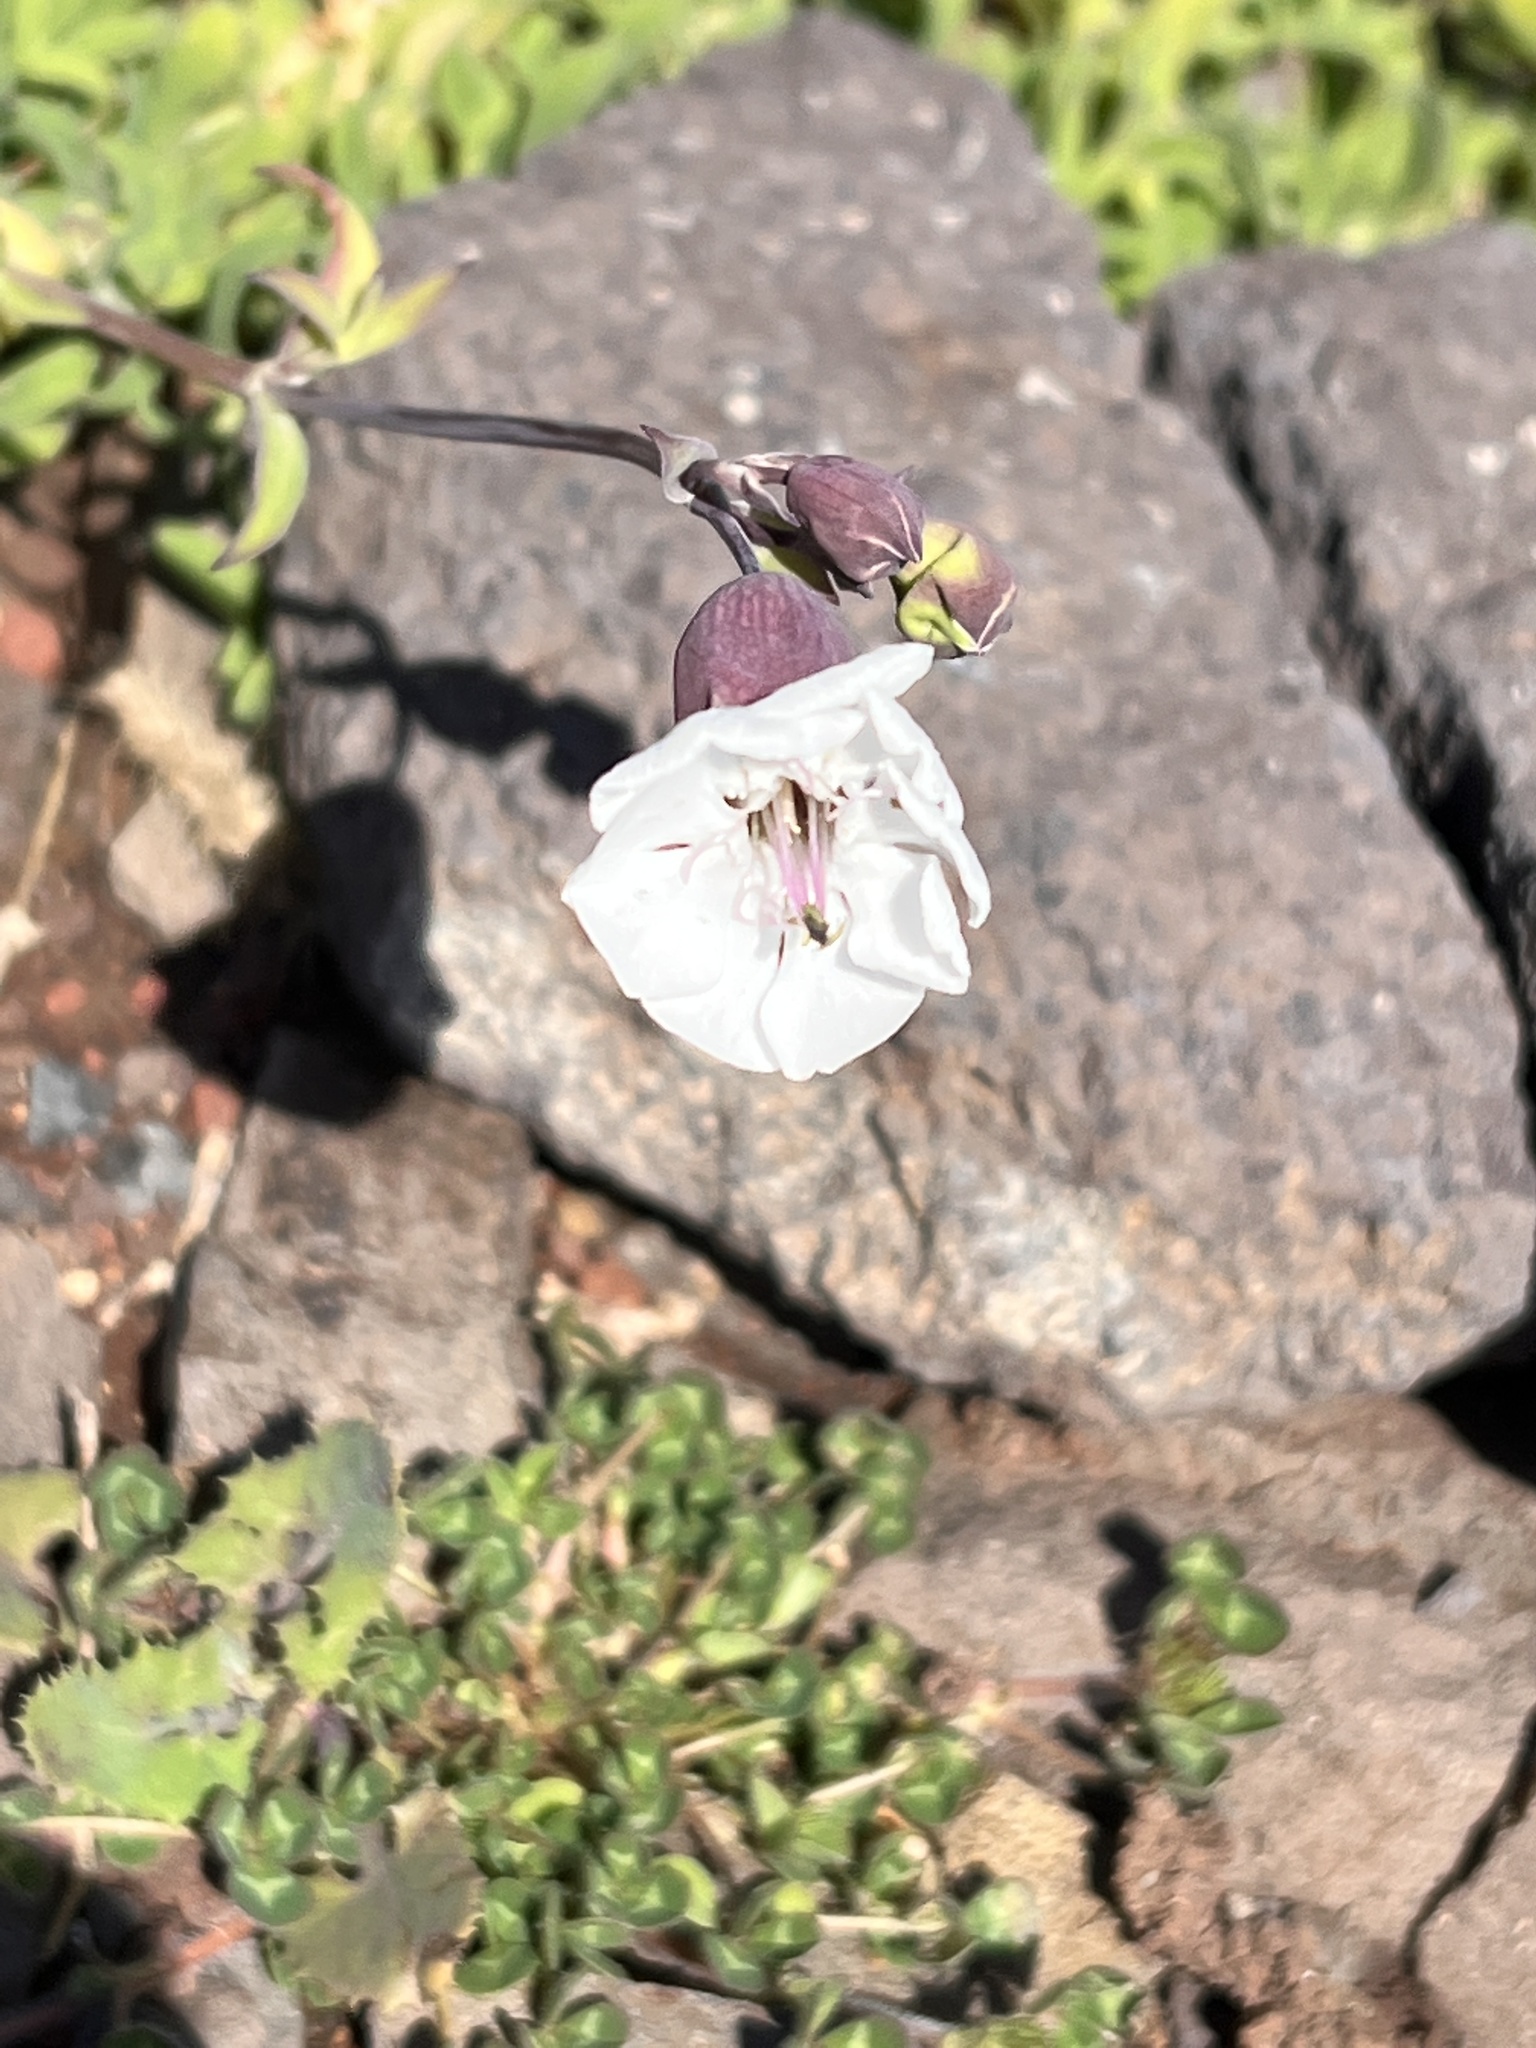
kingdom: Plantae
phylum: Tracheophyta
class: Magnoliopsida
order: Caryophyllales
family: Caryophyllaceae
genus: Silene
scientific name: Silene uniflora
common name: Sea campion
